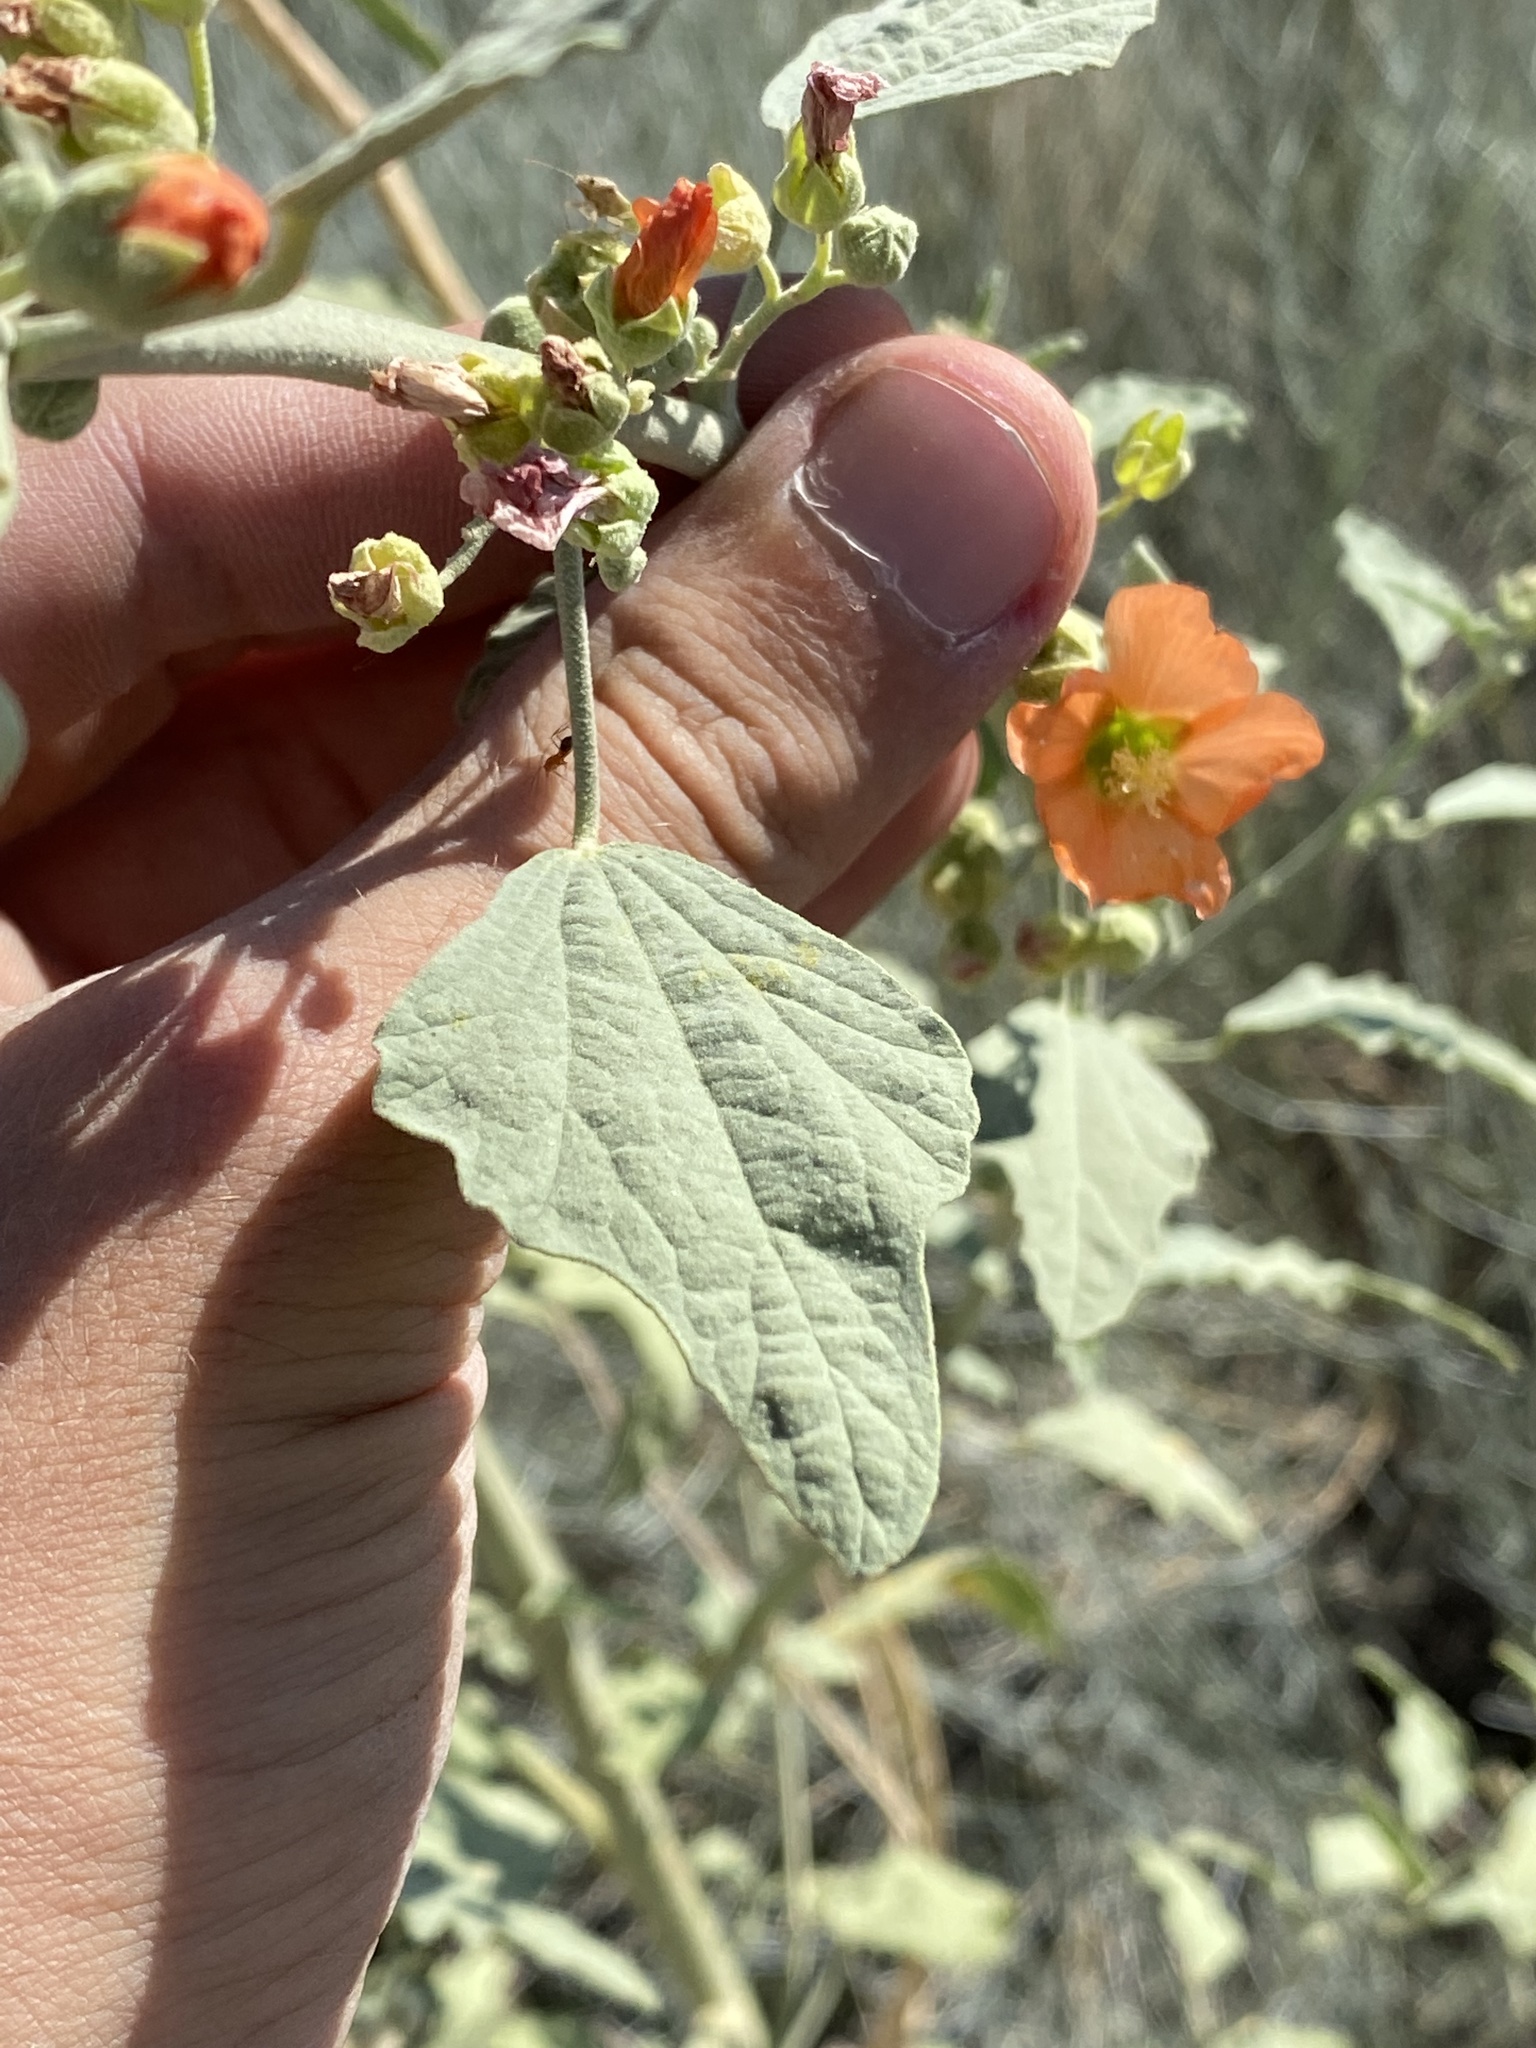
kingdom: Plantae
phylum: Tracheophyta
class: Magnoliopsida
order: Malvales
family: Malvaceae
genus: Sphaeralcea
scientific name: Sphaeralcea incana
